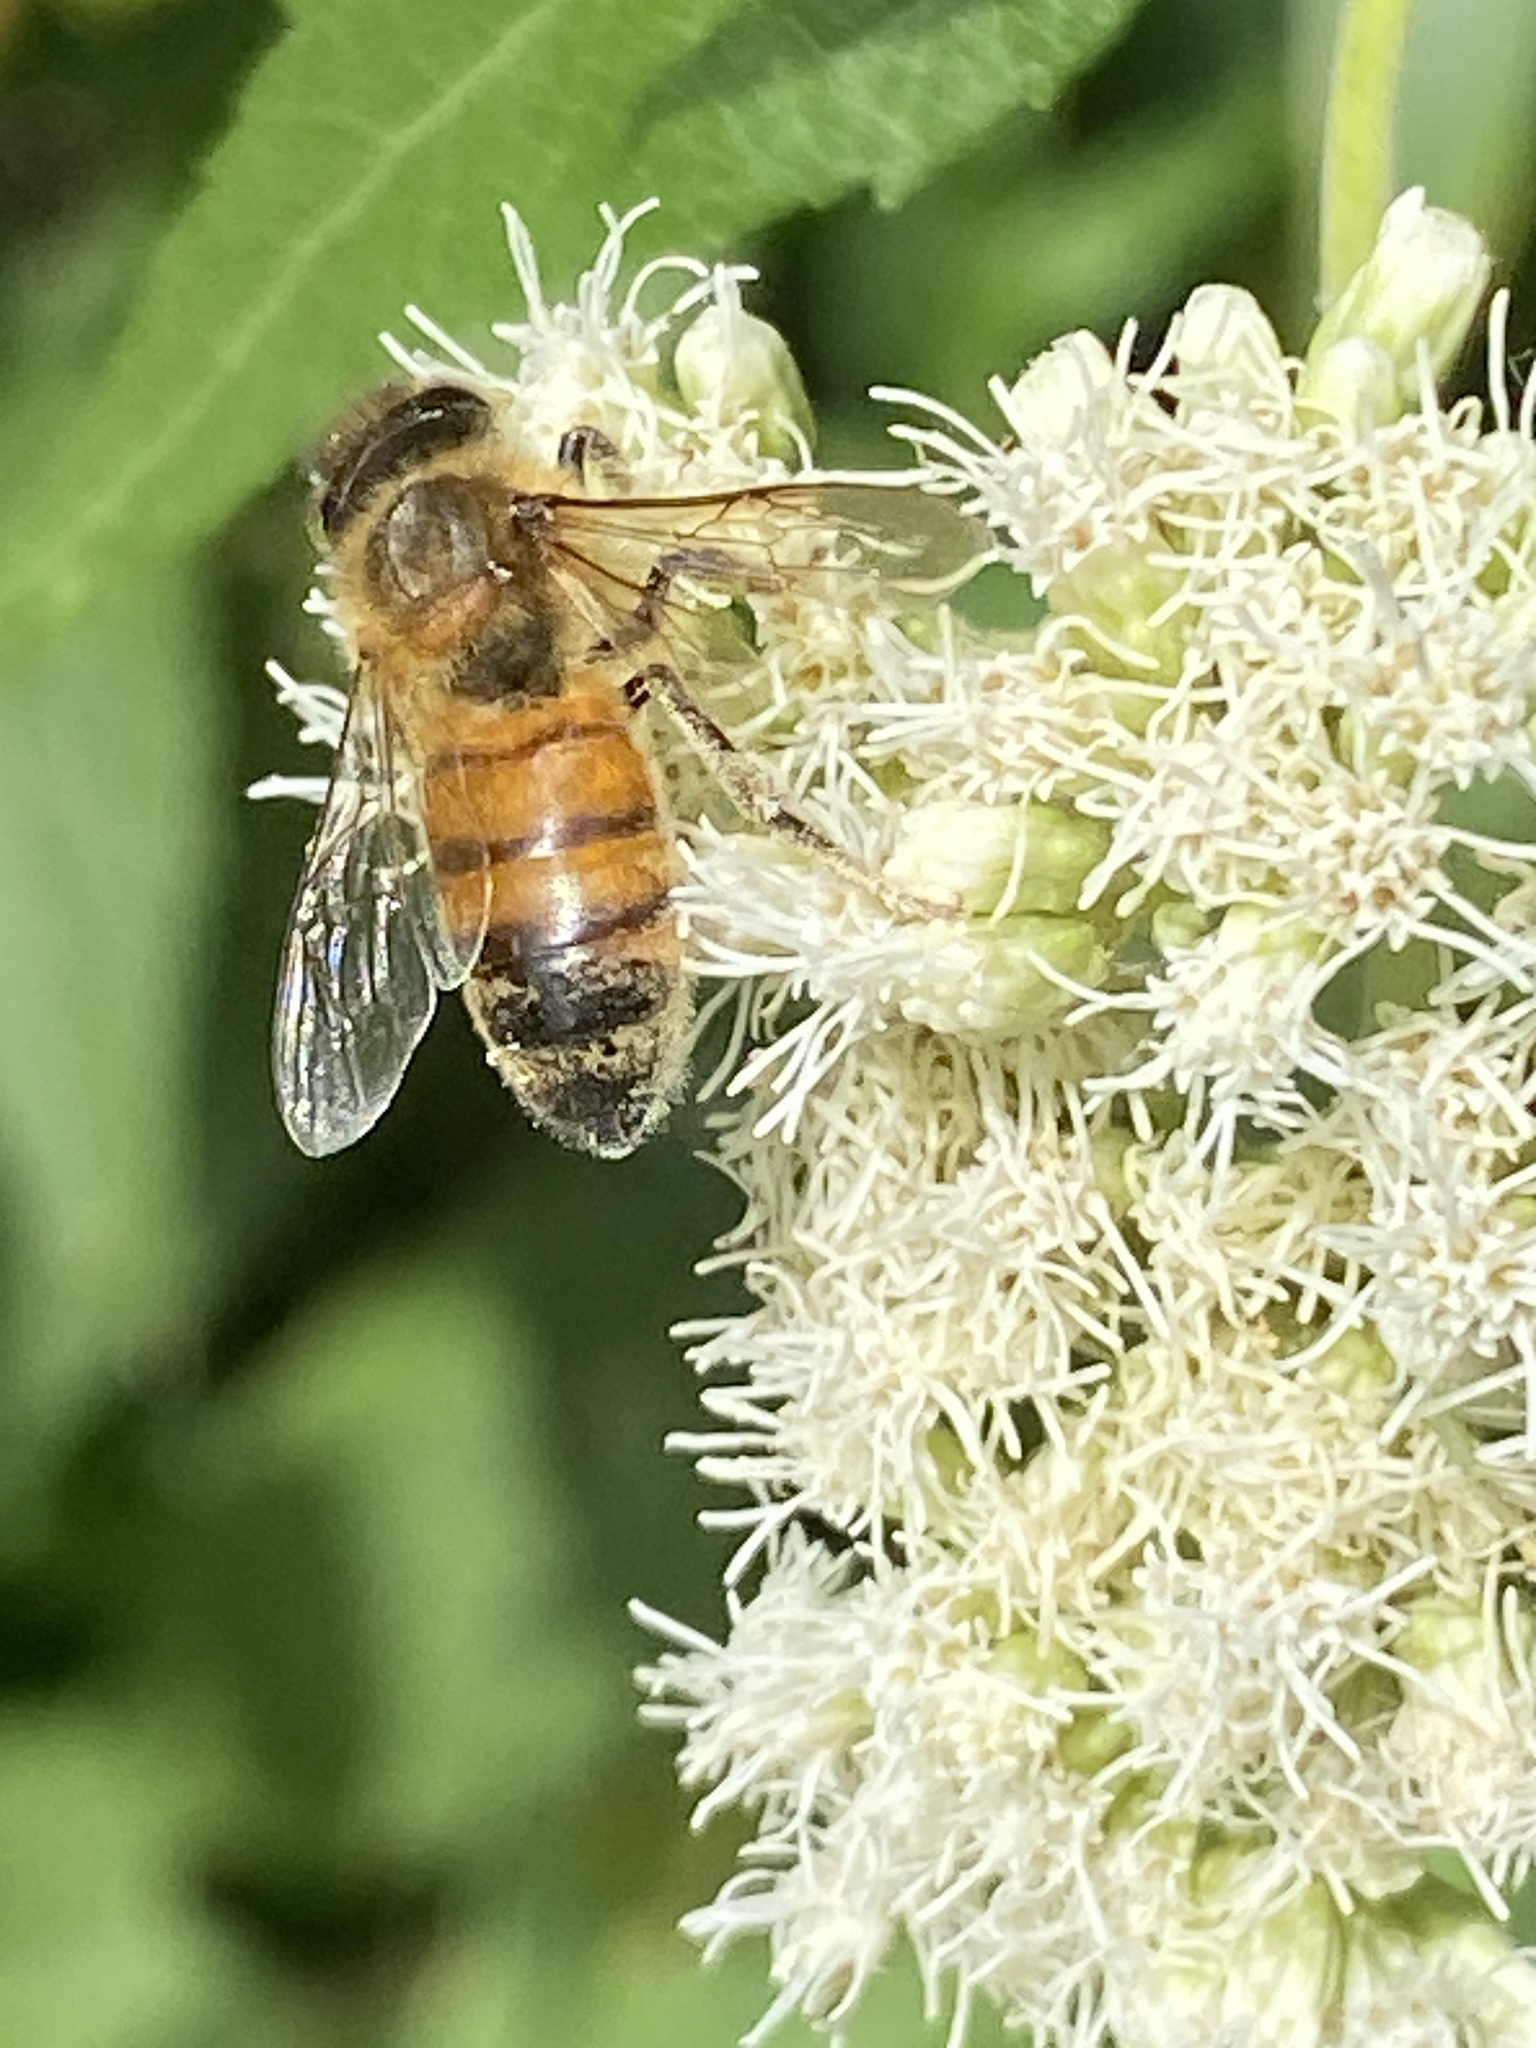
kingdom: Animalia
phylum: Arthropoda
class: Insecta
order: Hymenoptera
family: Apidae
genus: Apis
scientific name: Apis mellifera
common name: Honey bee
